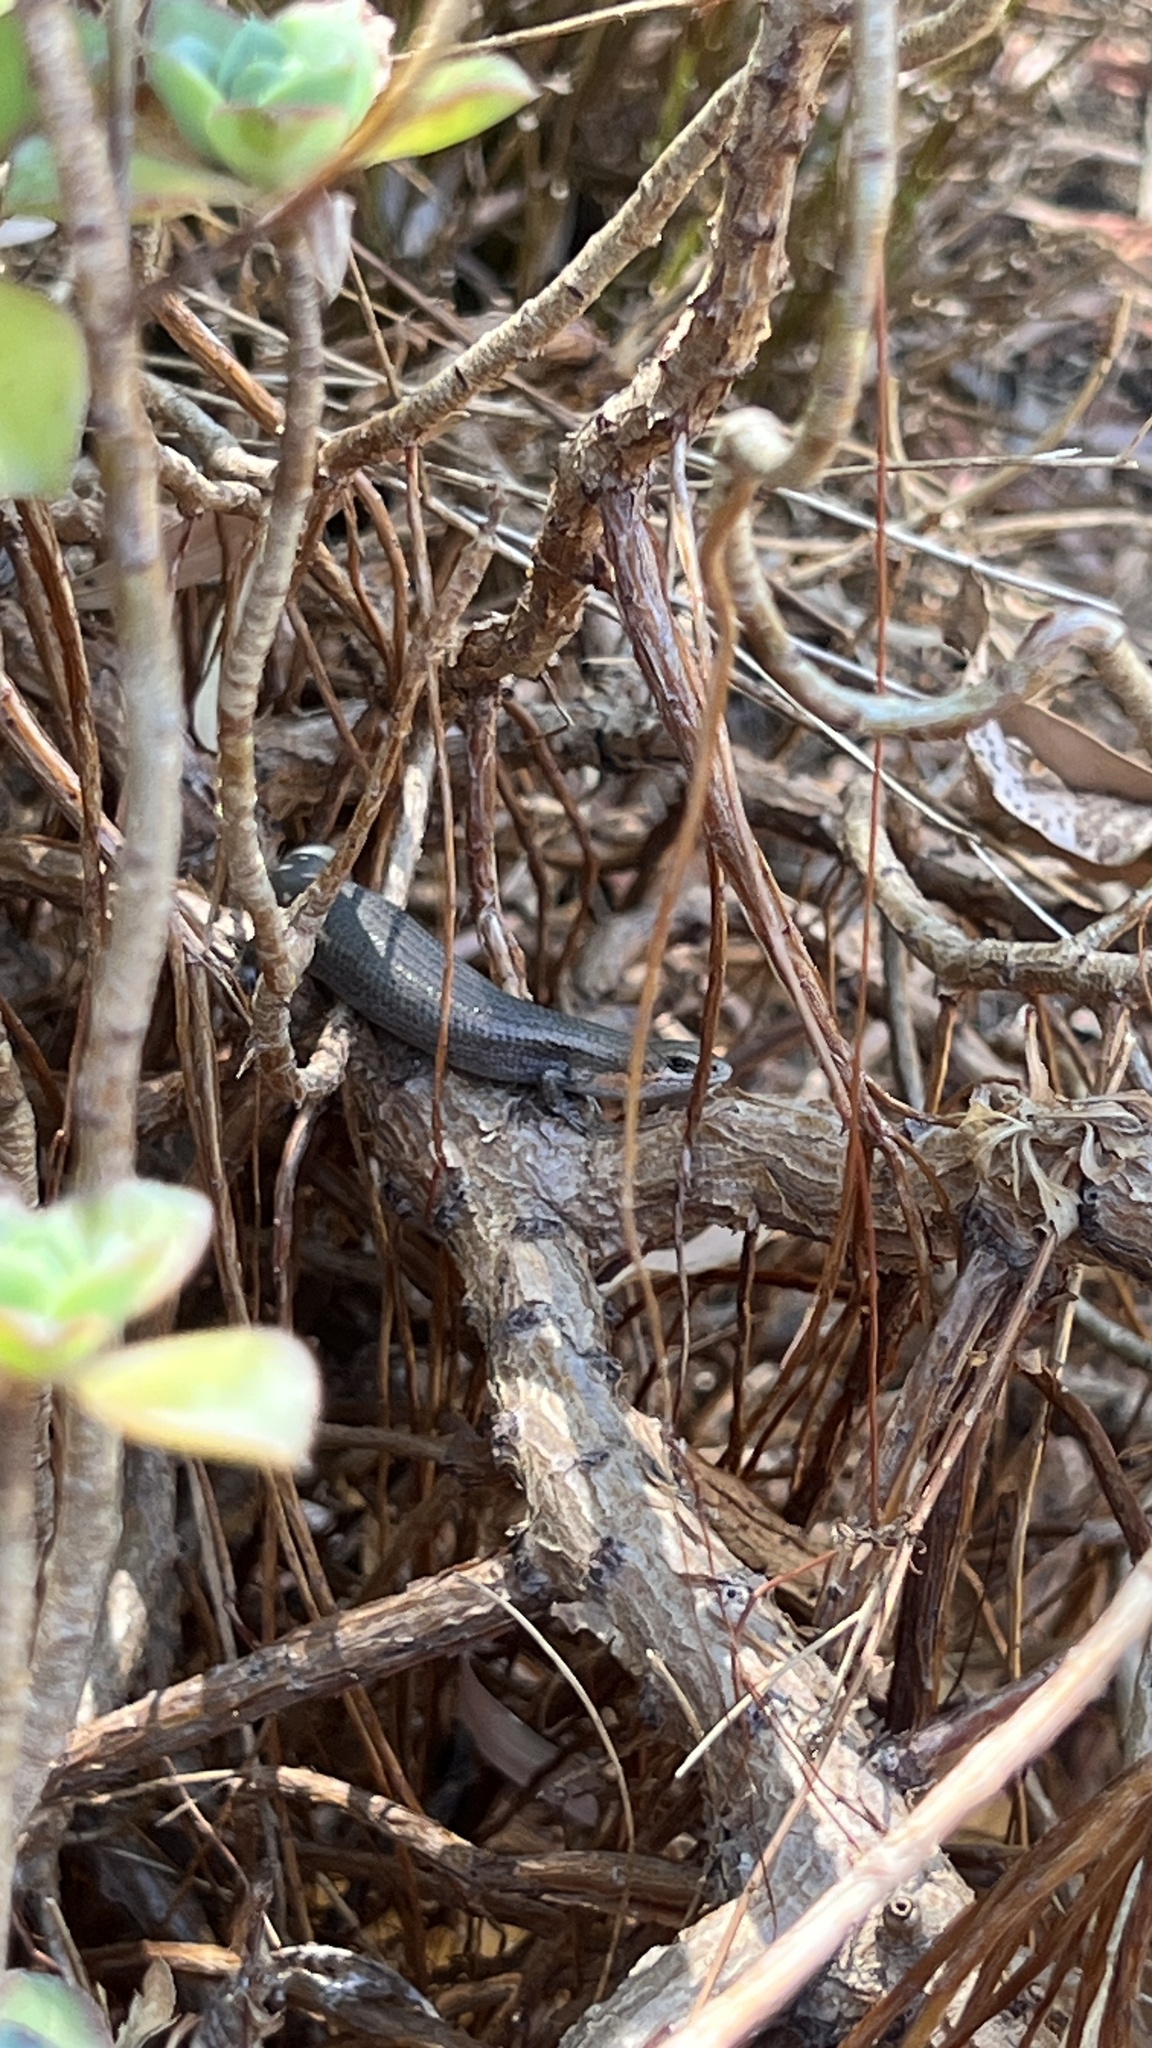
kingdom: Animalia
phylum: Chordata
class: Squamata
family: Scincidae
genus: Acritoscincus
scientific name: Acritoscincus trilineatus
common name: New holland skink
